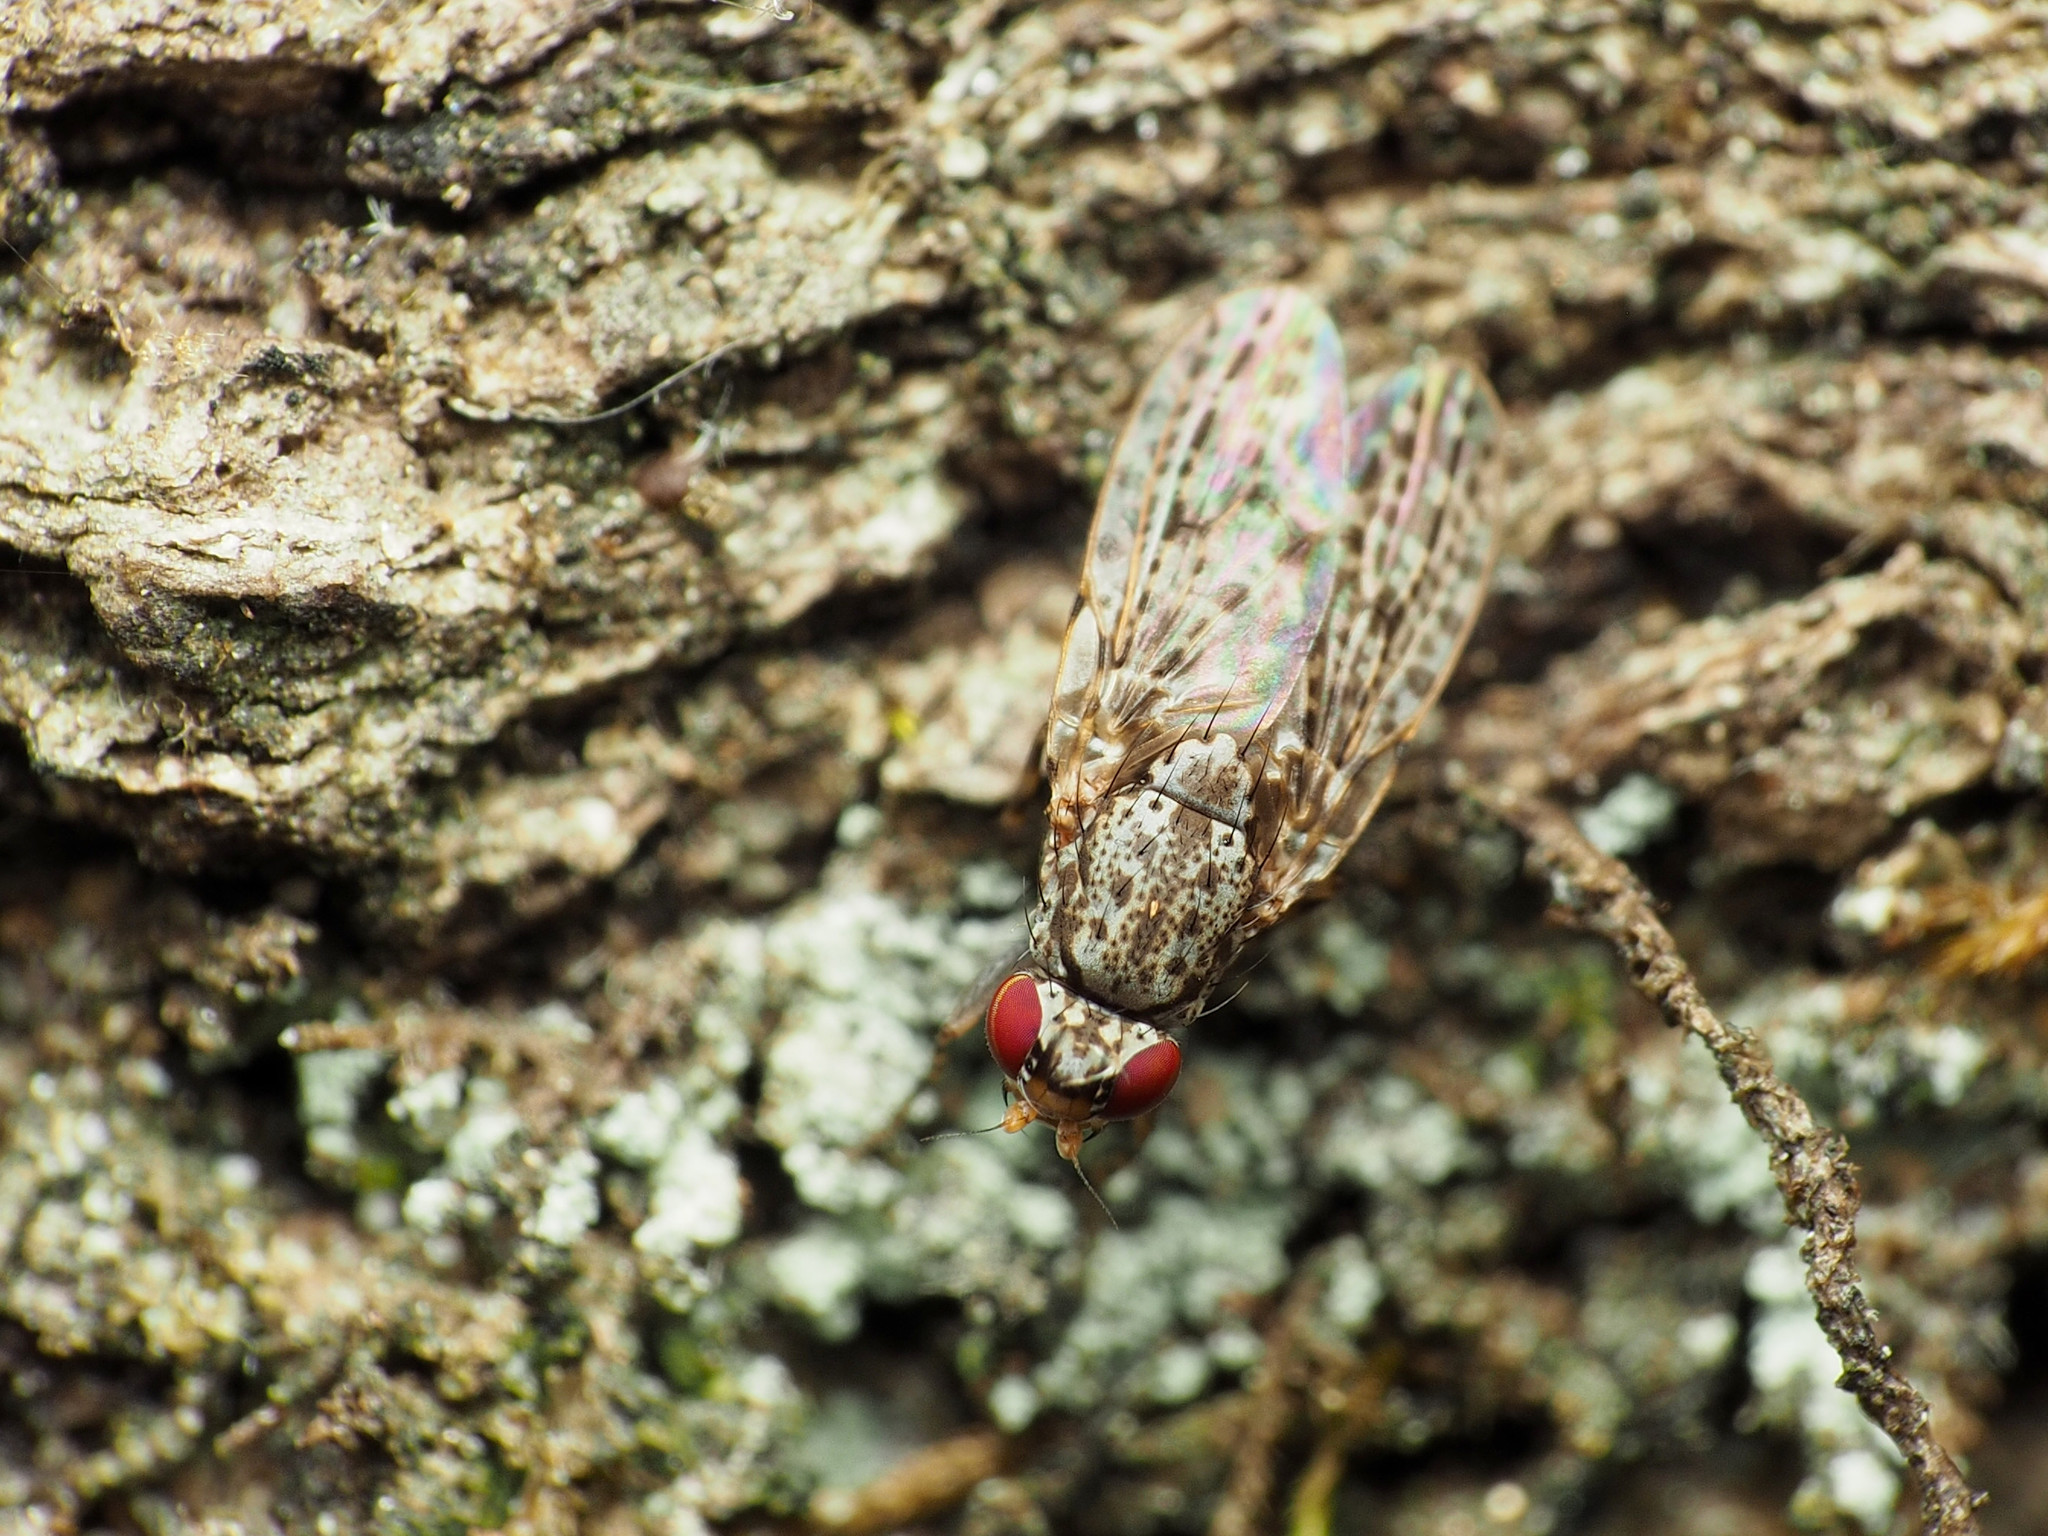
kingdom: Animalia
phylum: Arthropoda
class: Insecta
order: Diptera
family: Odiniidae
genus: Traginops
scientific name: Traginops irroratus
